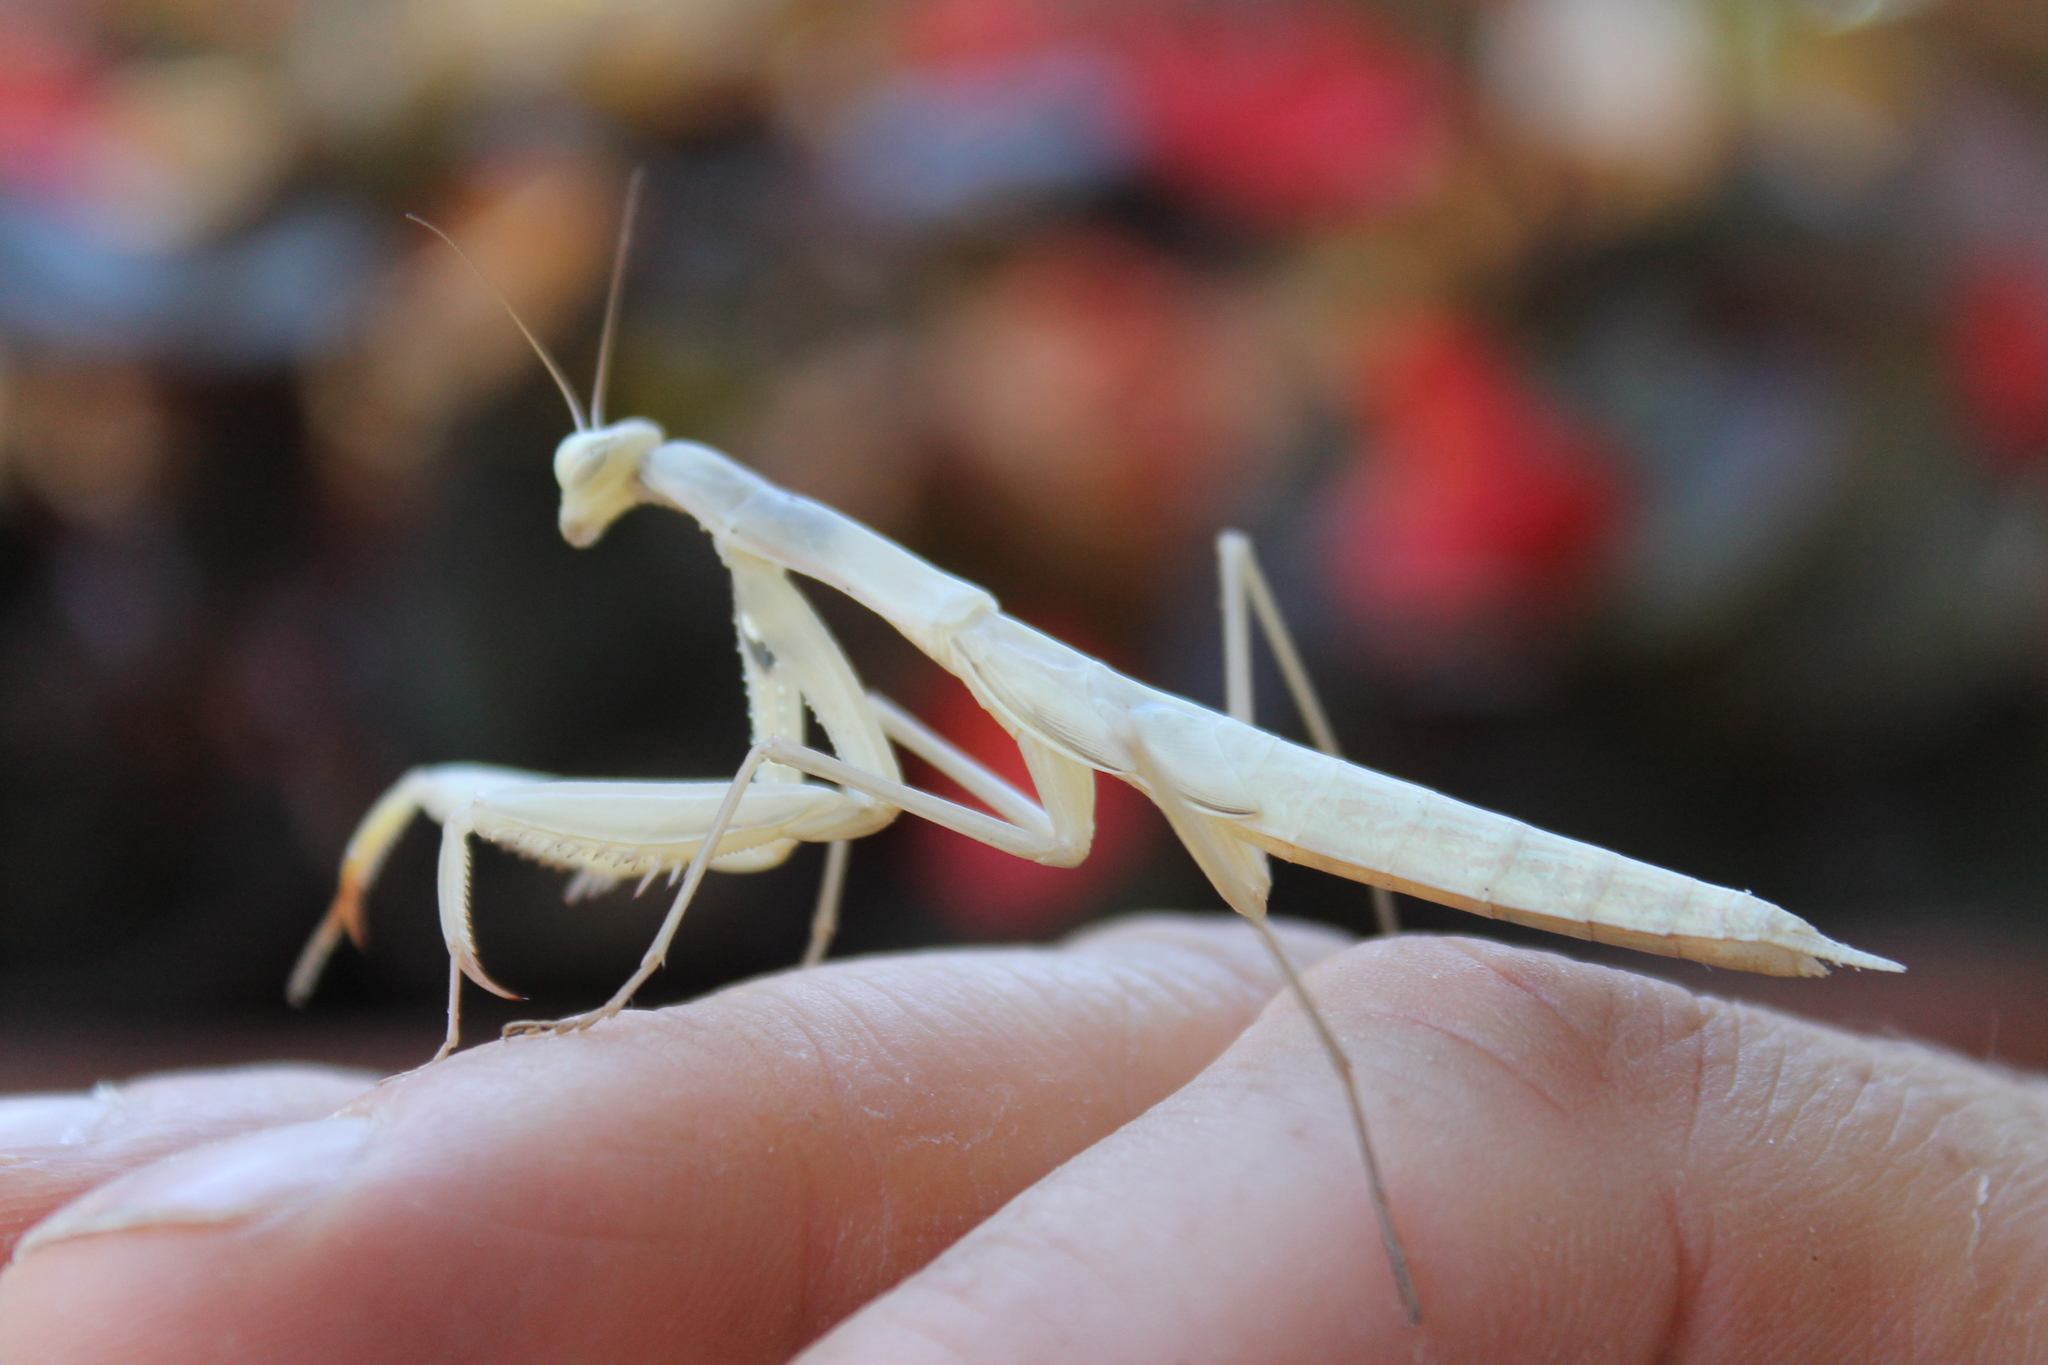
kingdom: Animalia
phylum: Arthropoda
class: Insecta
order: Mantodea
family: Mantidae
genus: Mantis
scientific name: Mantis religiosa
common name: Praying mantis
